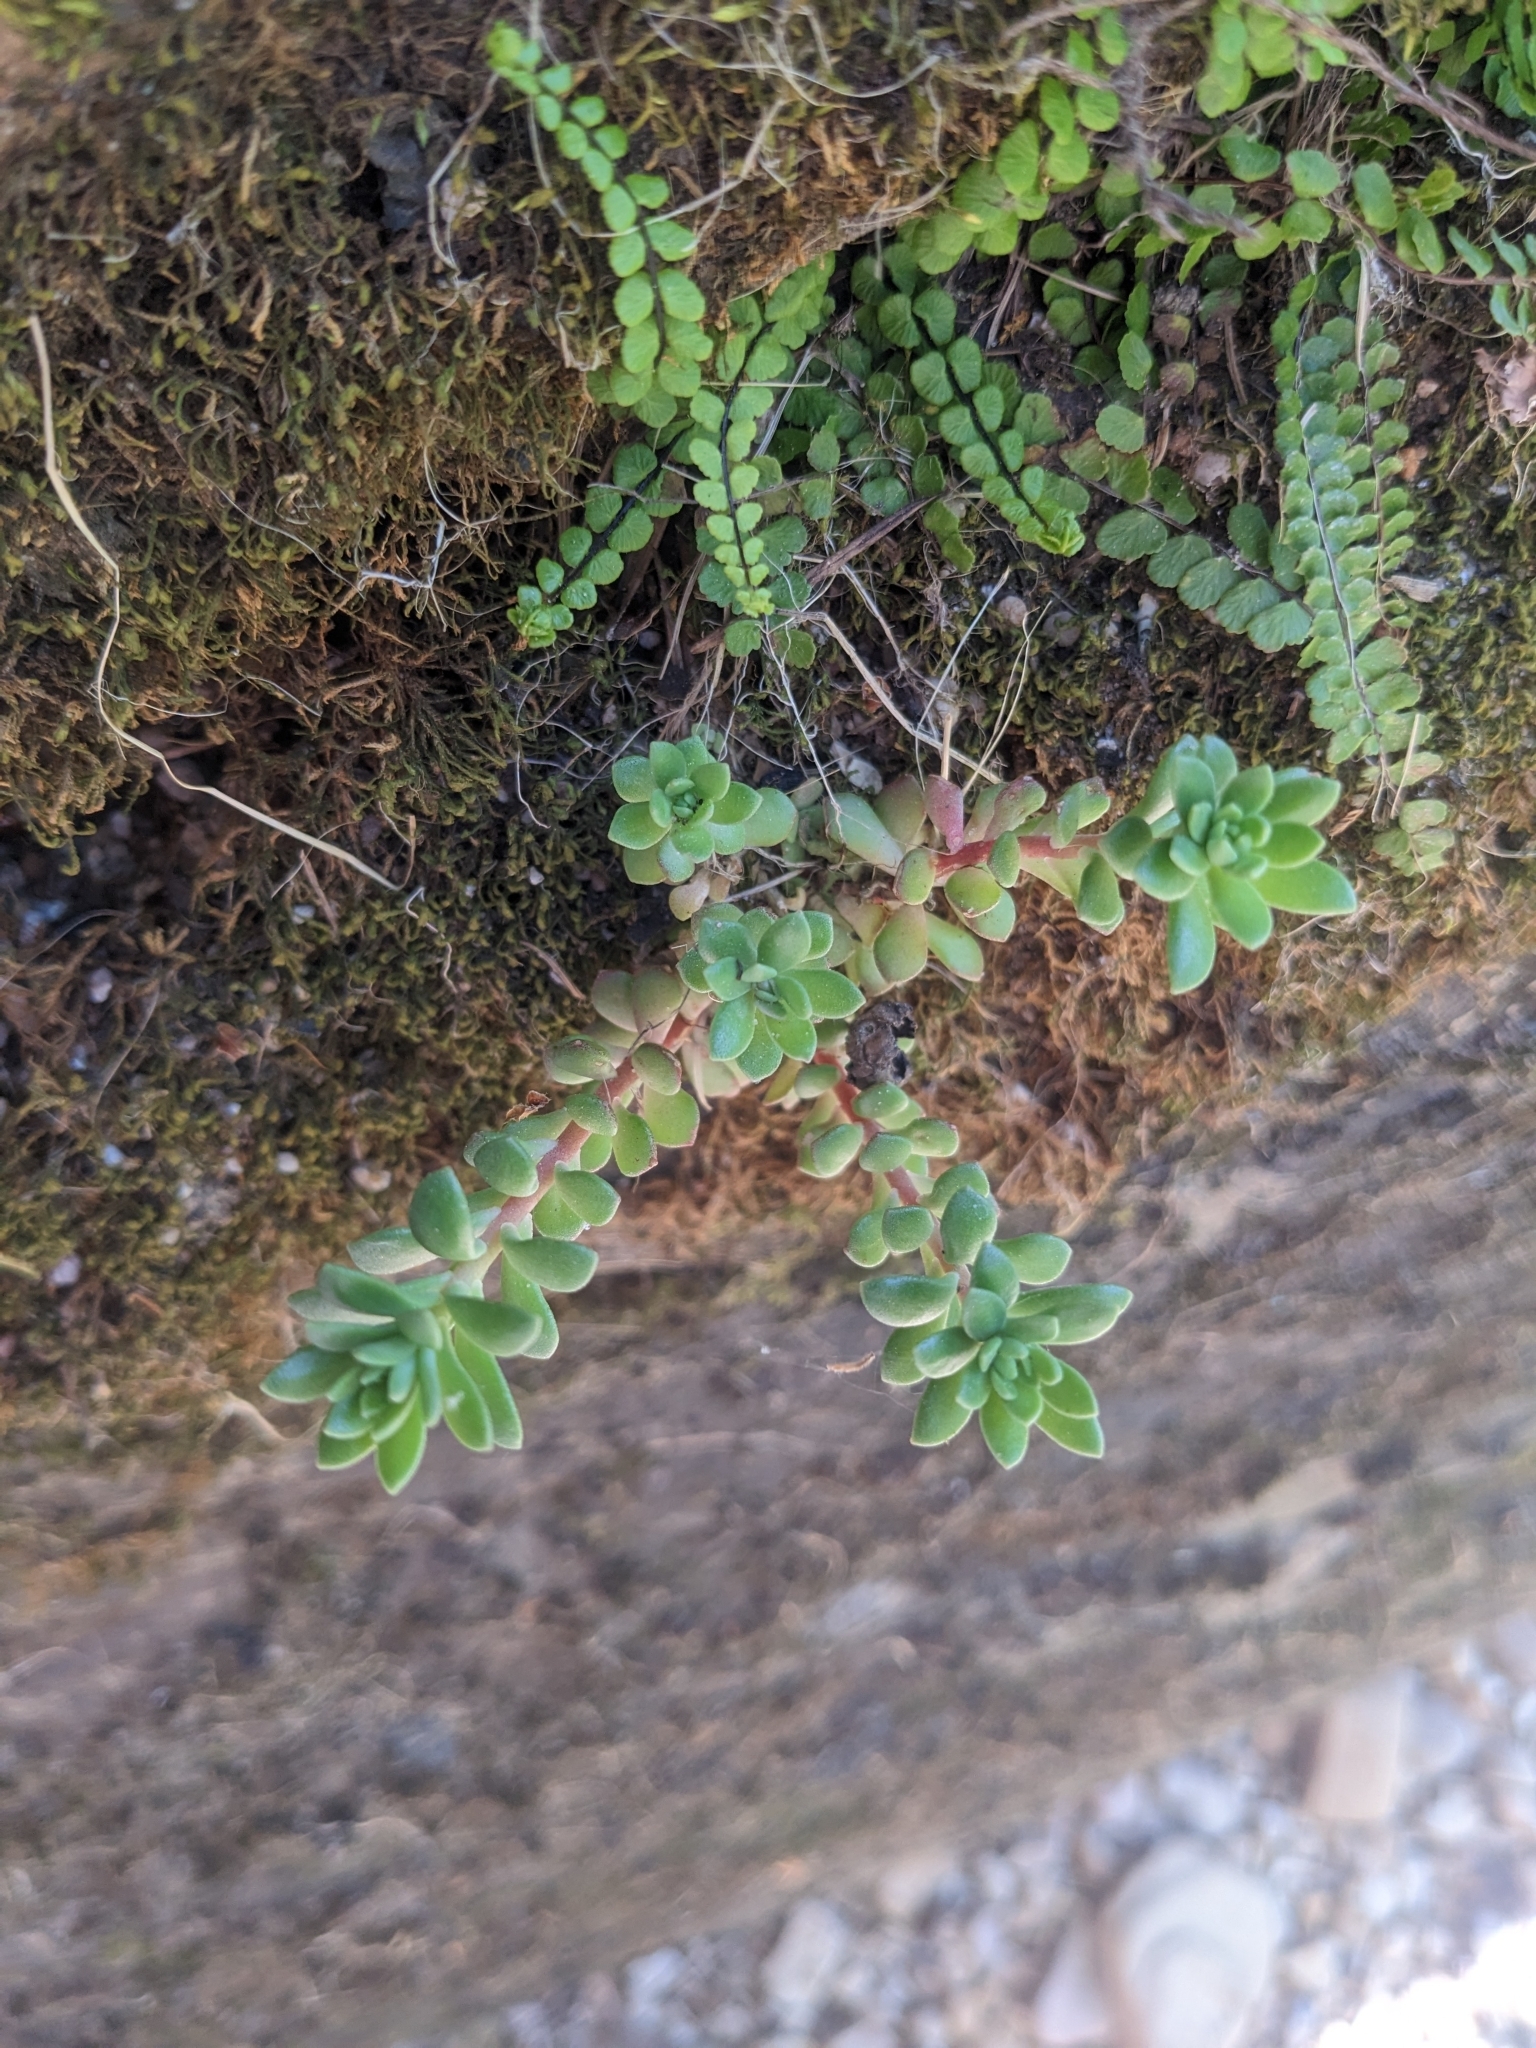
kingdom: Plantae
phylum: Tracheophyta
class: Magnoliopsida
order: Saxifragales
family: Crassulaceae
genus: Sedum
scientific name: Sedum cockerellii
